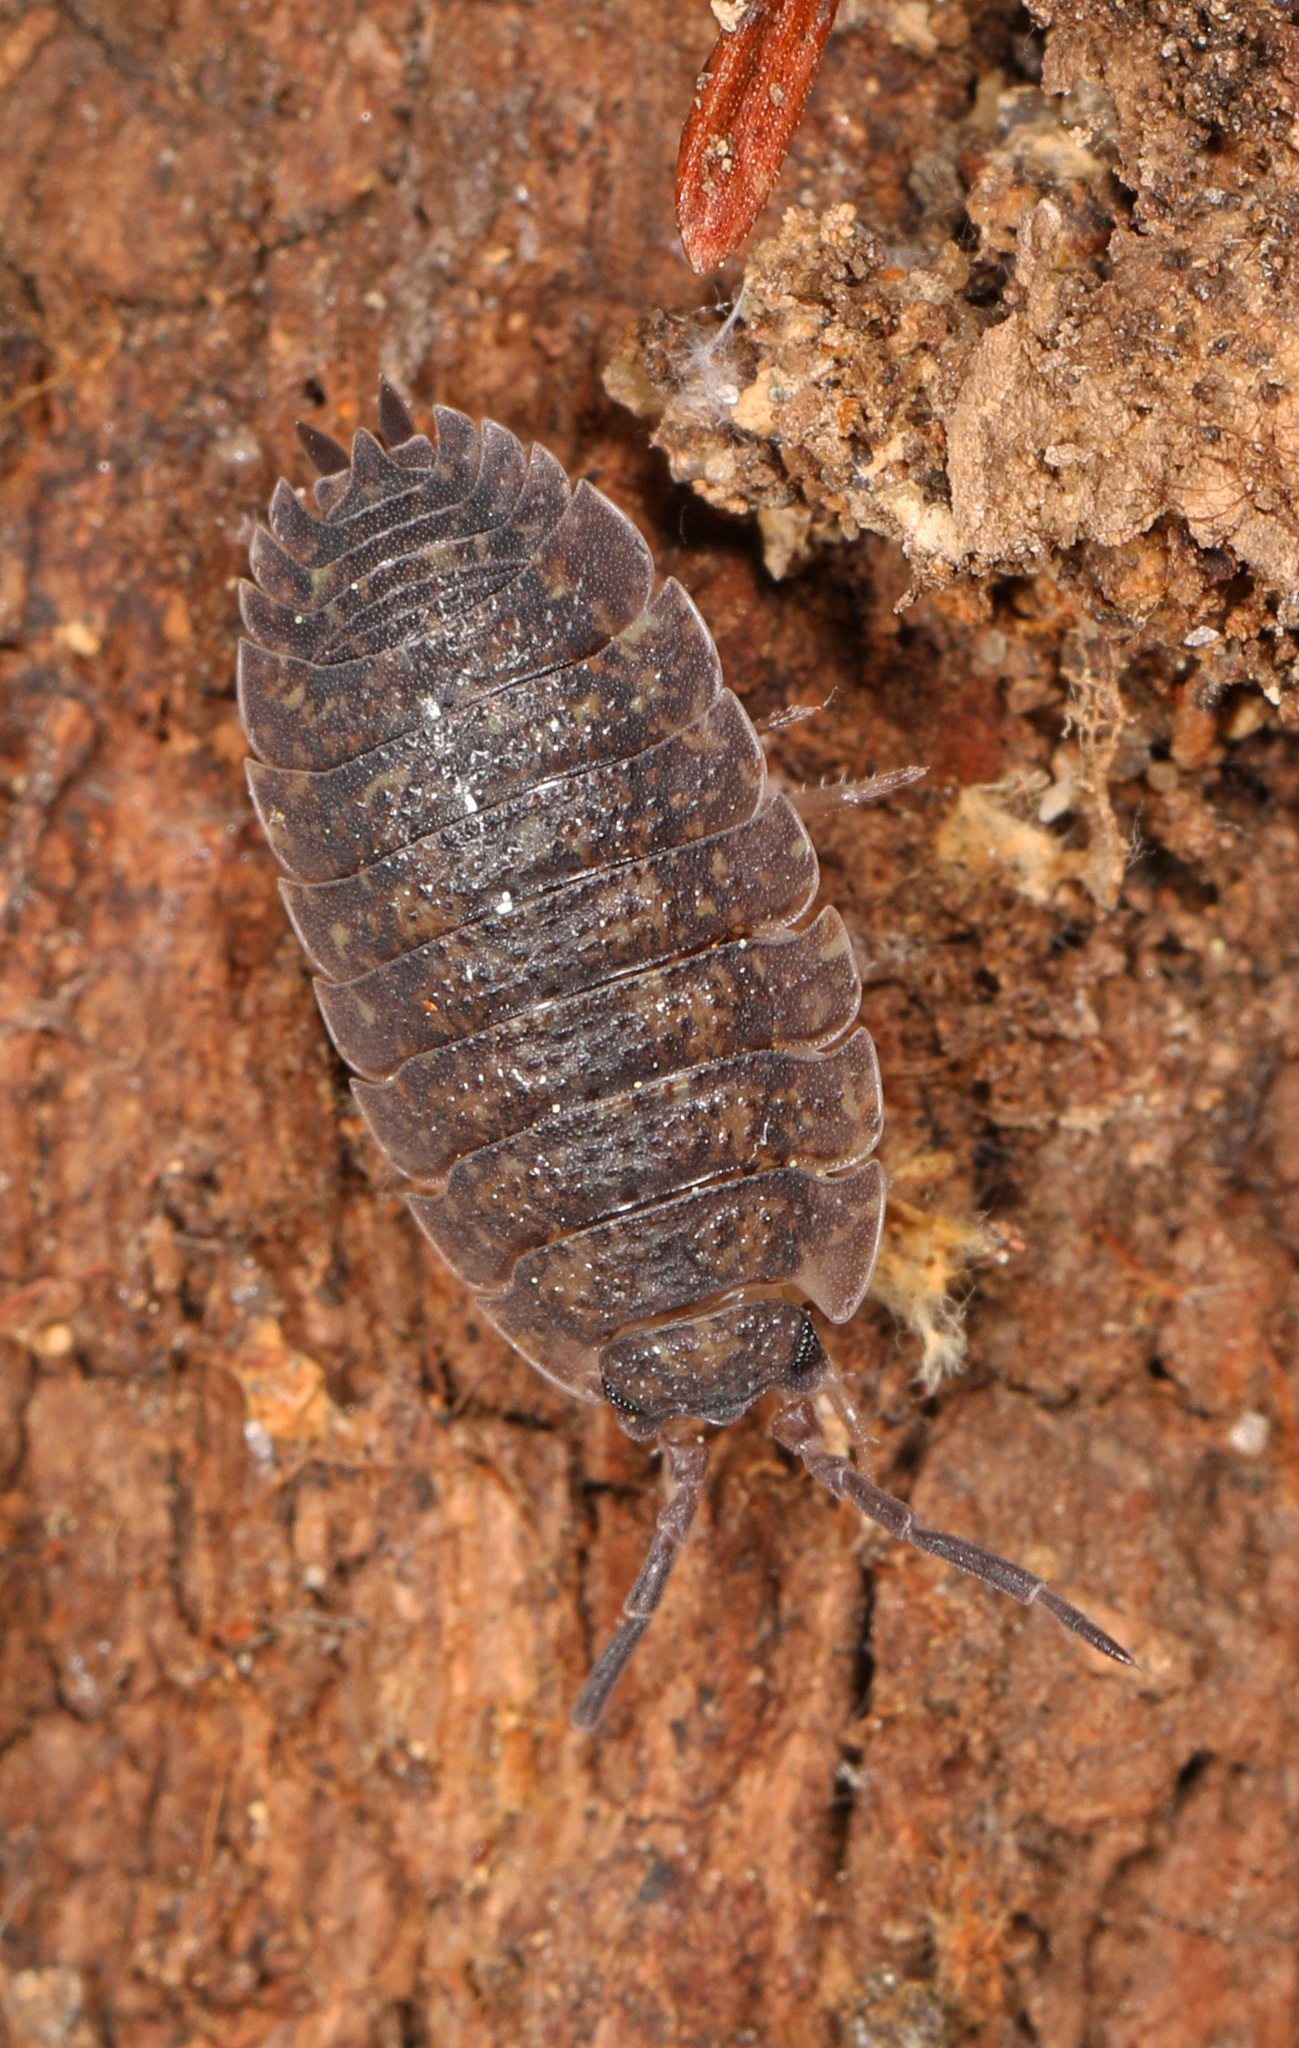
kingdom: Animalia
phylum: Arthropoda
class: Malacostraca
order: Isopoda
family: Porcellionidae
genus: Porcellio
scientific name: Porcellio scaber
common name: Common rough woodlouse
